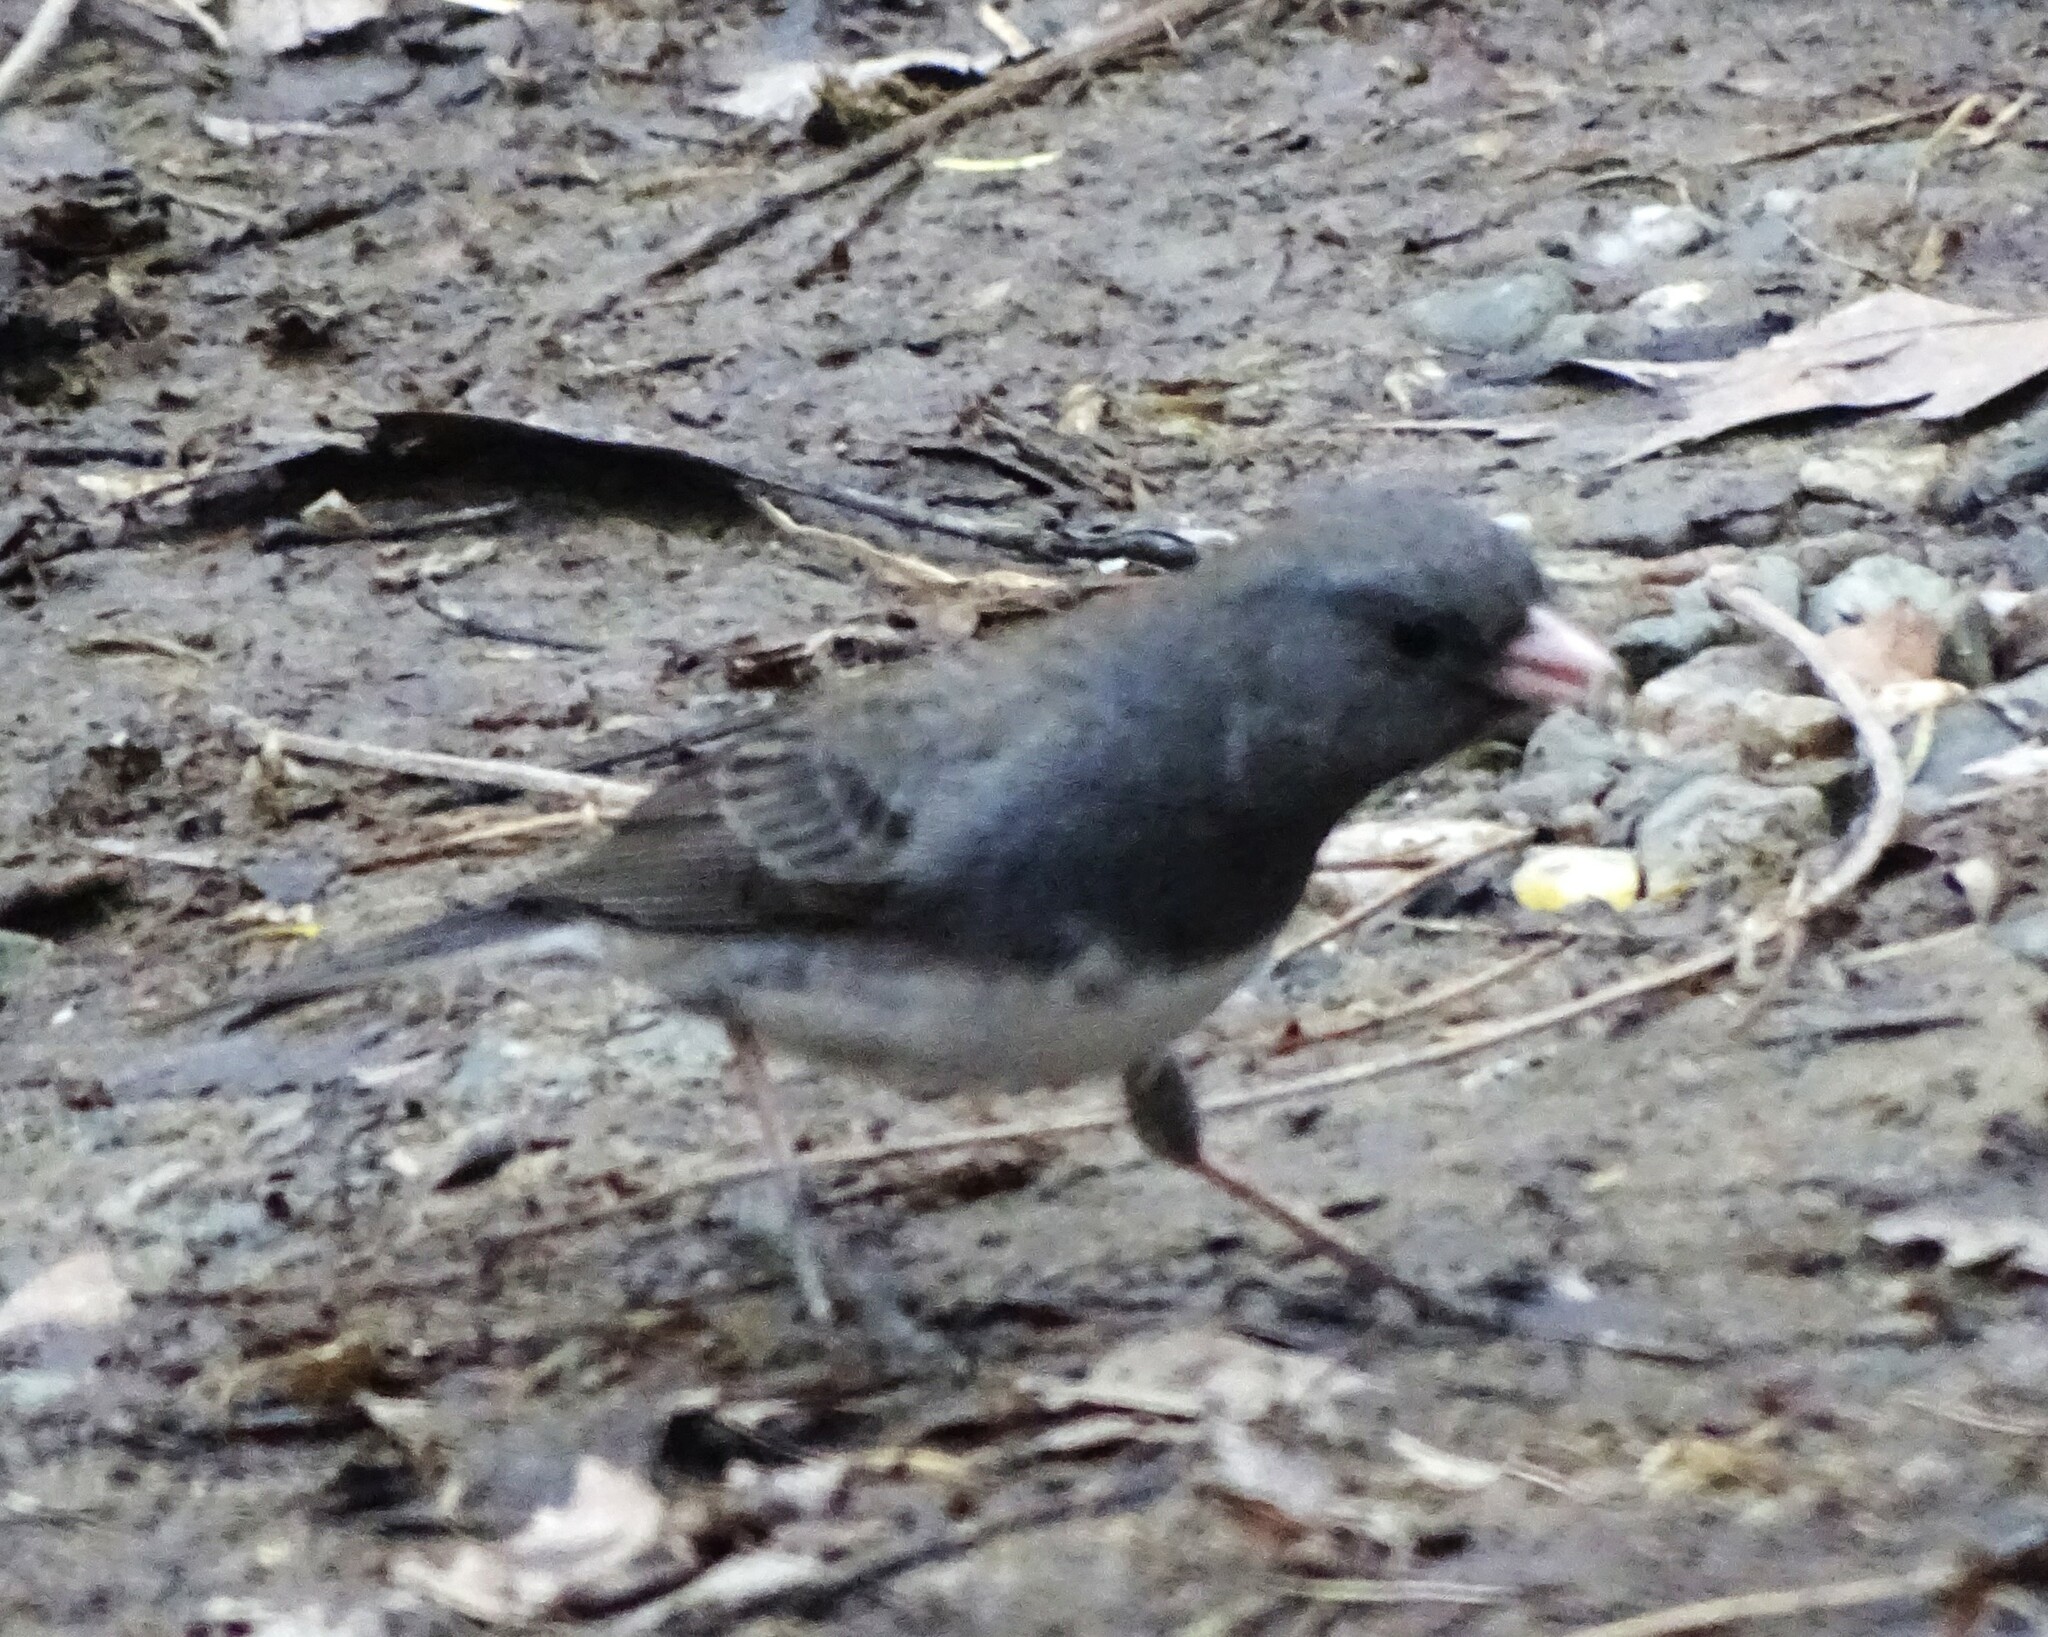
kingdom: Animalia
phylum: Chordata
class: Aves
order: Passeriformes
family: Passerellidae
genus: Junco
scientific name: Junco hyemalis
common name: Dark-eyed junco
